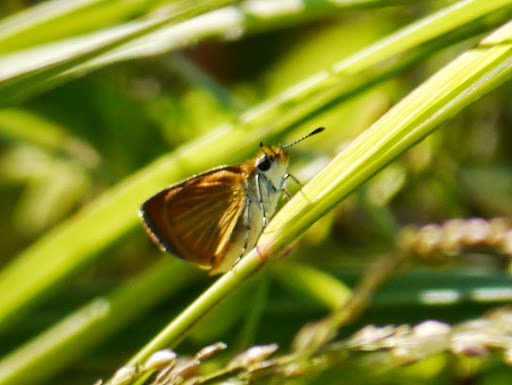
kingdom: Animalia
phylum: Arthropoda
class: Insecta
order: Lepidoptera
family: Hesperiidae
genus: Ancyloxypha
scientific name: Ancyloxypha numitor
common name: Least skipper
